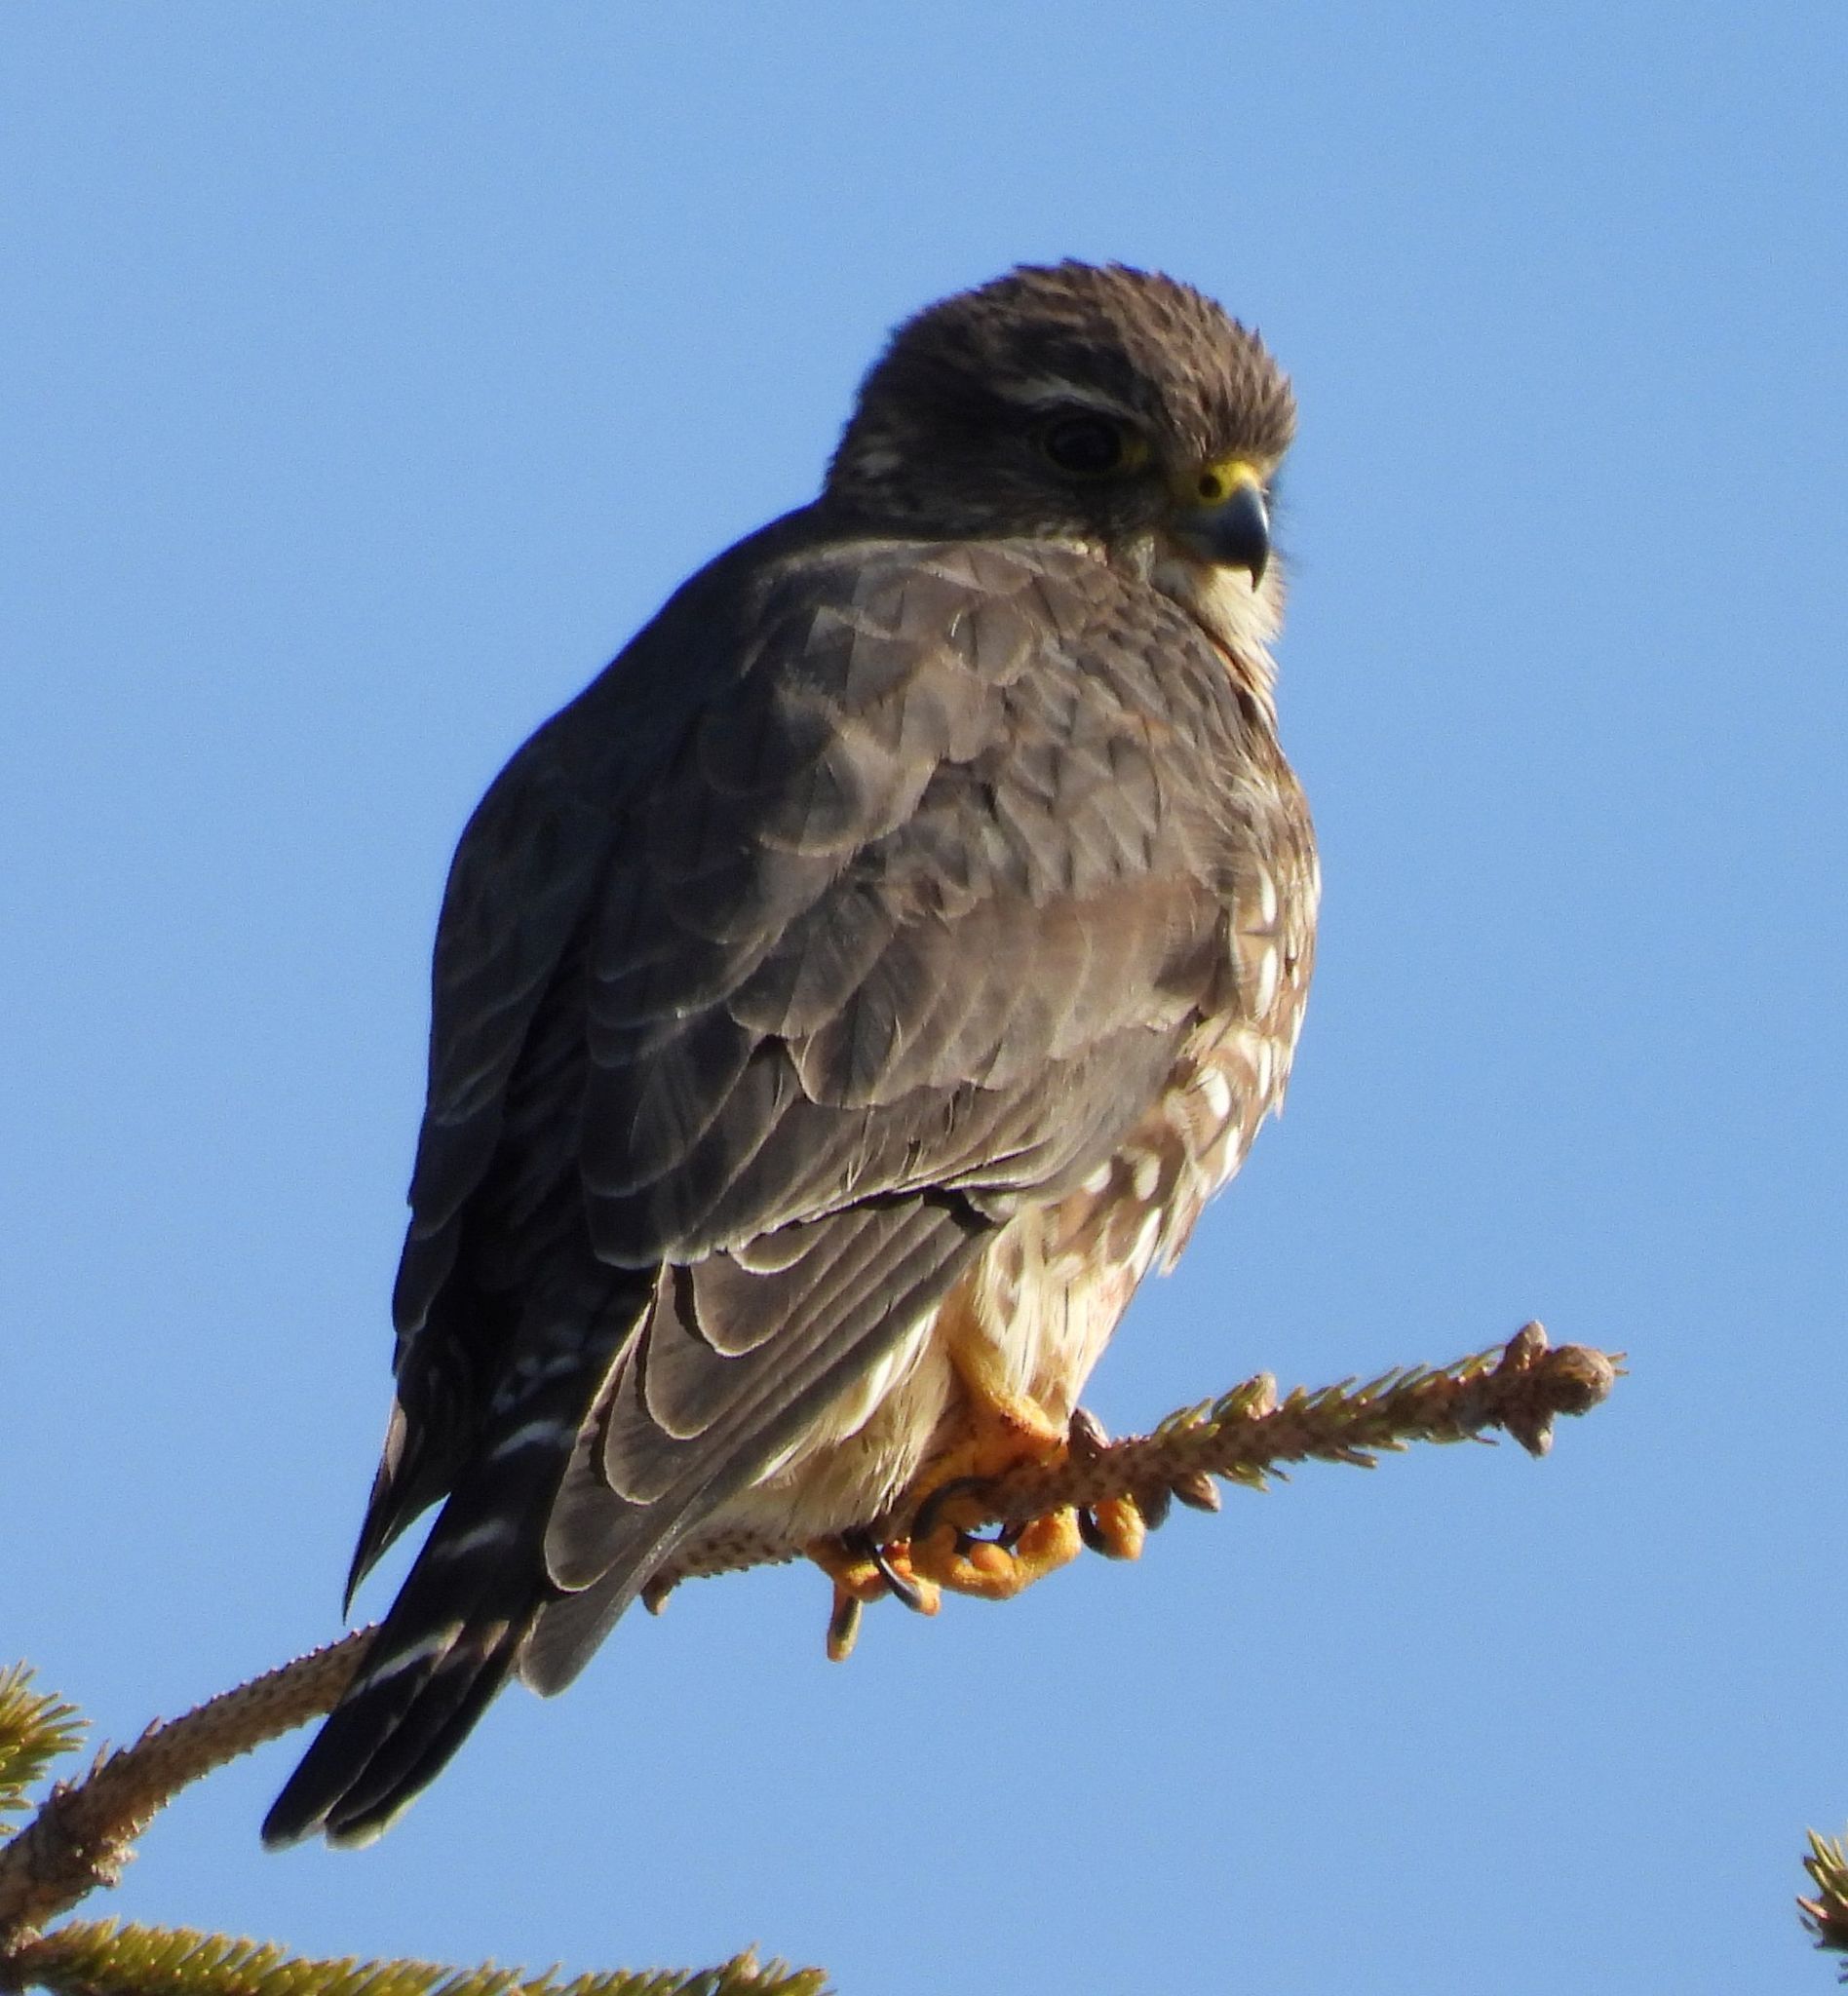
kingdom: Animalia
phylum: Chordata
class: Aves
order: Falconiformes
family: Falconidae
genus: Falco
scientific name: Falco columbarius
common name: Merlin
